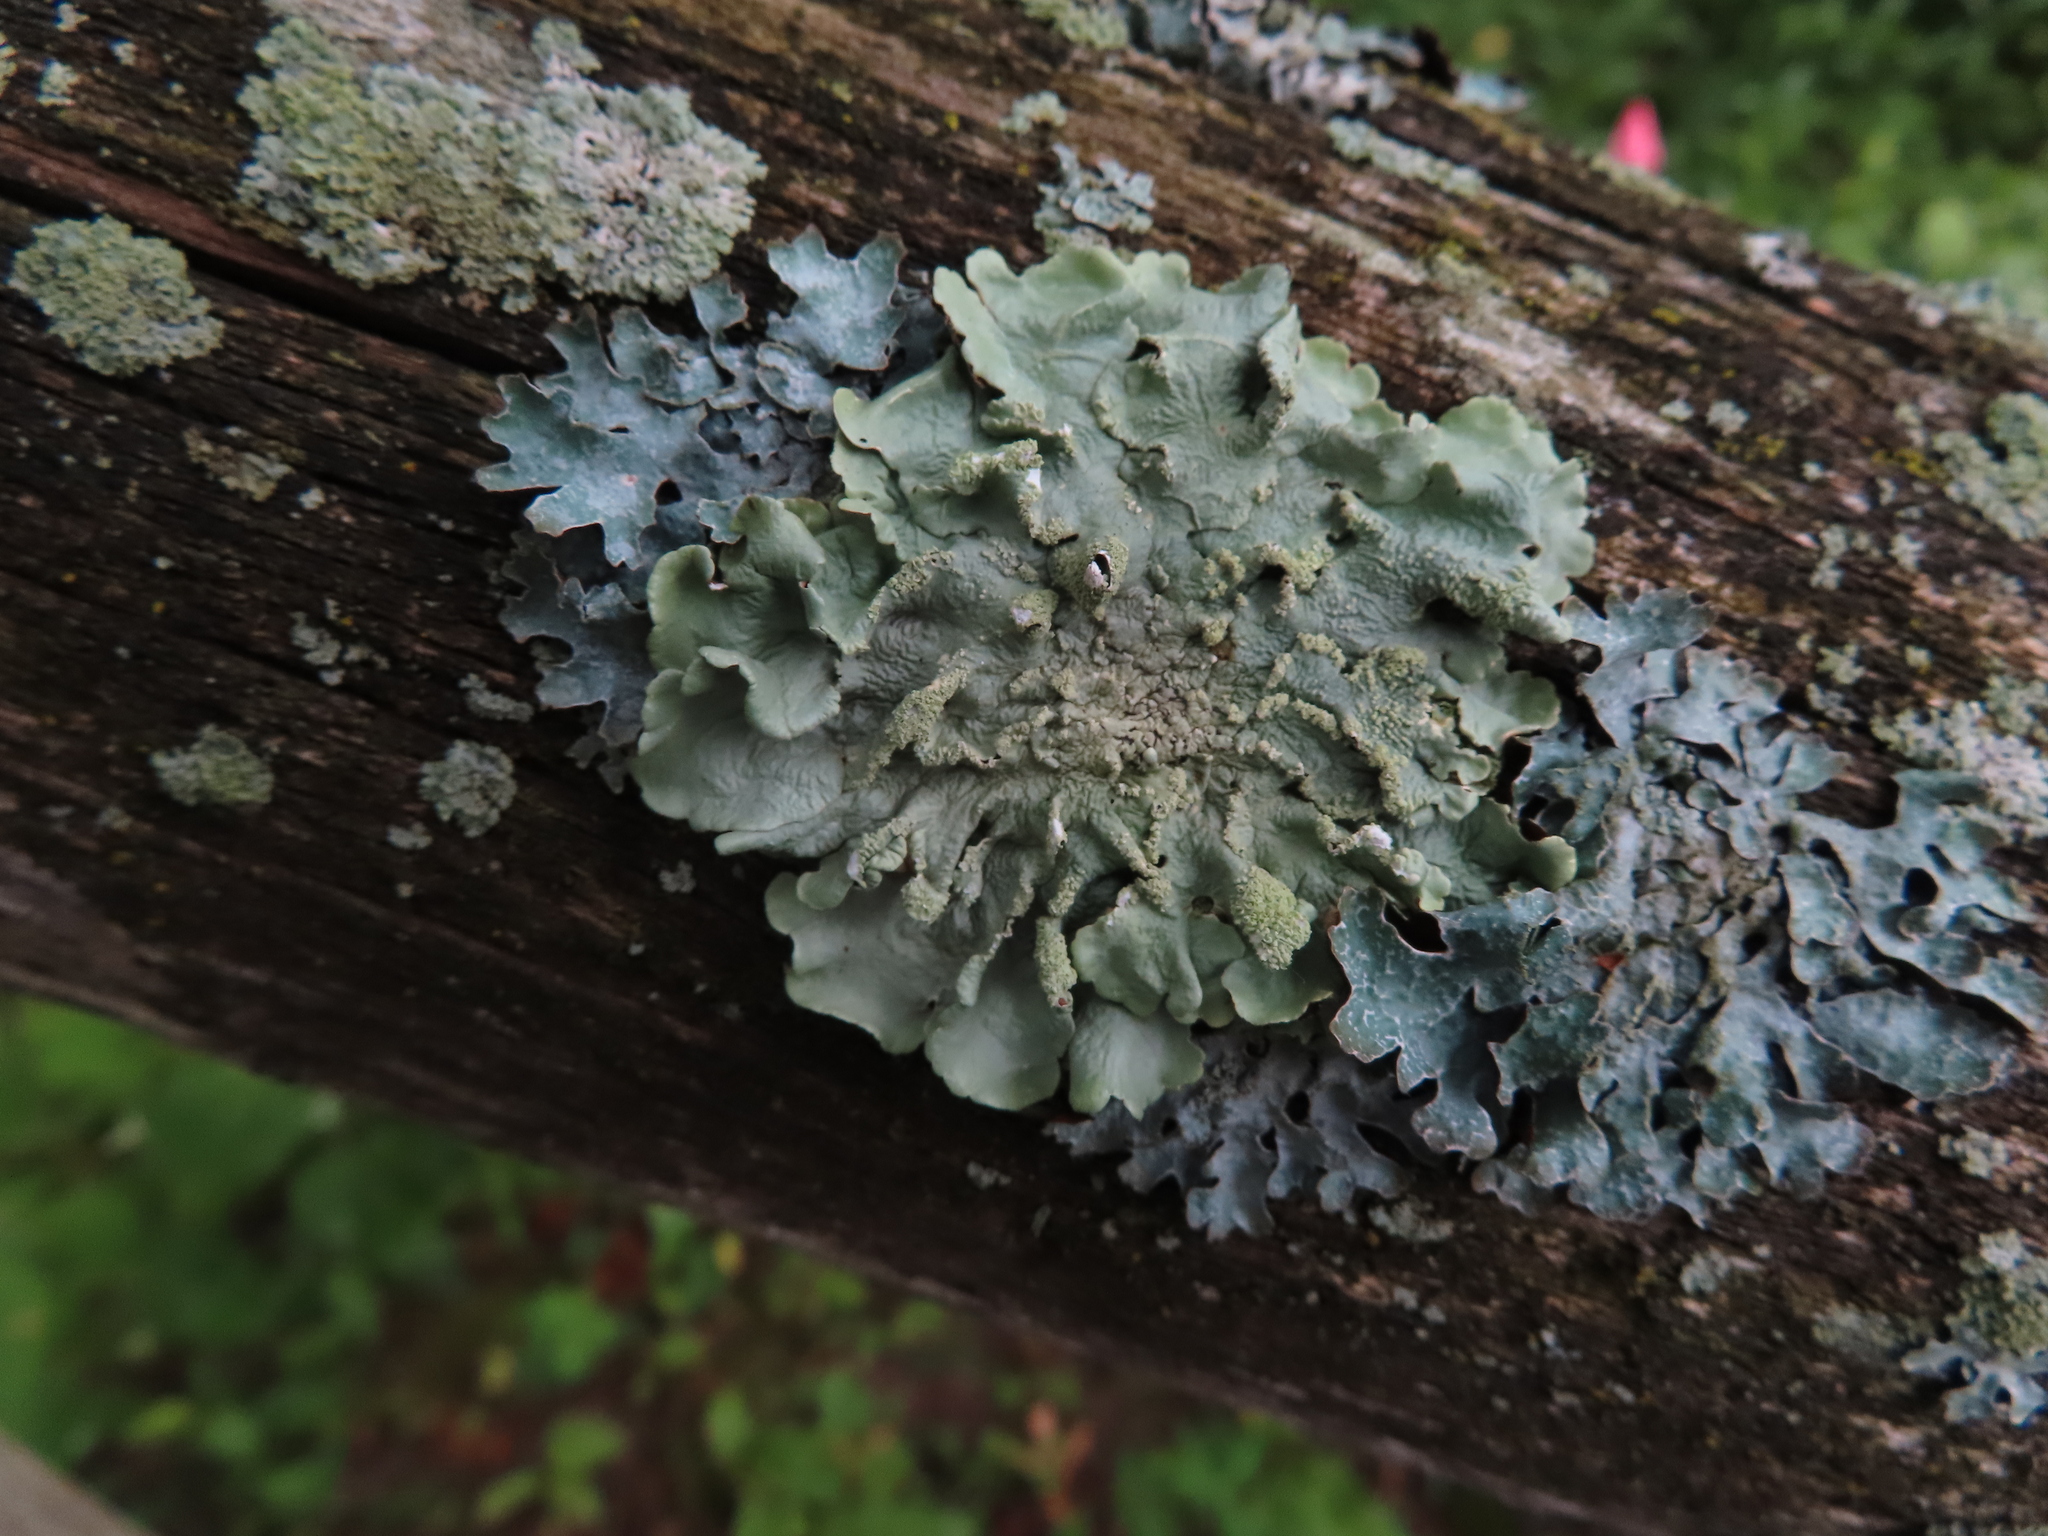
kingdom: Fungi
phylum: Ascomycota
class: Lecanoromycetes
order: Lecanorales
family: Parmeliaceae
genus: Flavoparmelia
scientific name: Flavoparmelia caperata
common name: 40-mile per hour lichen
